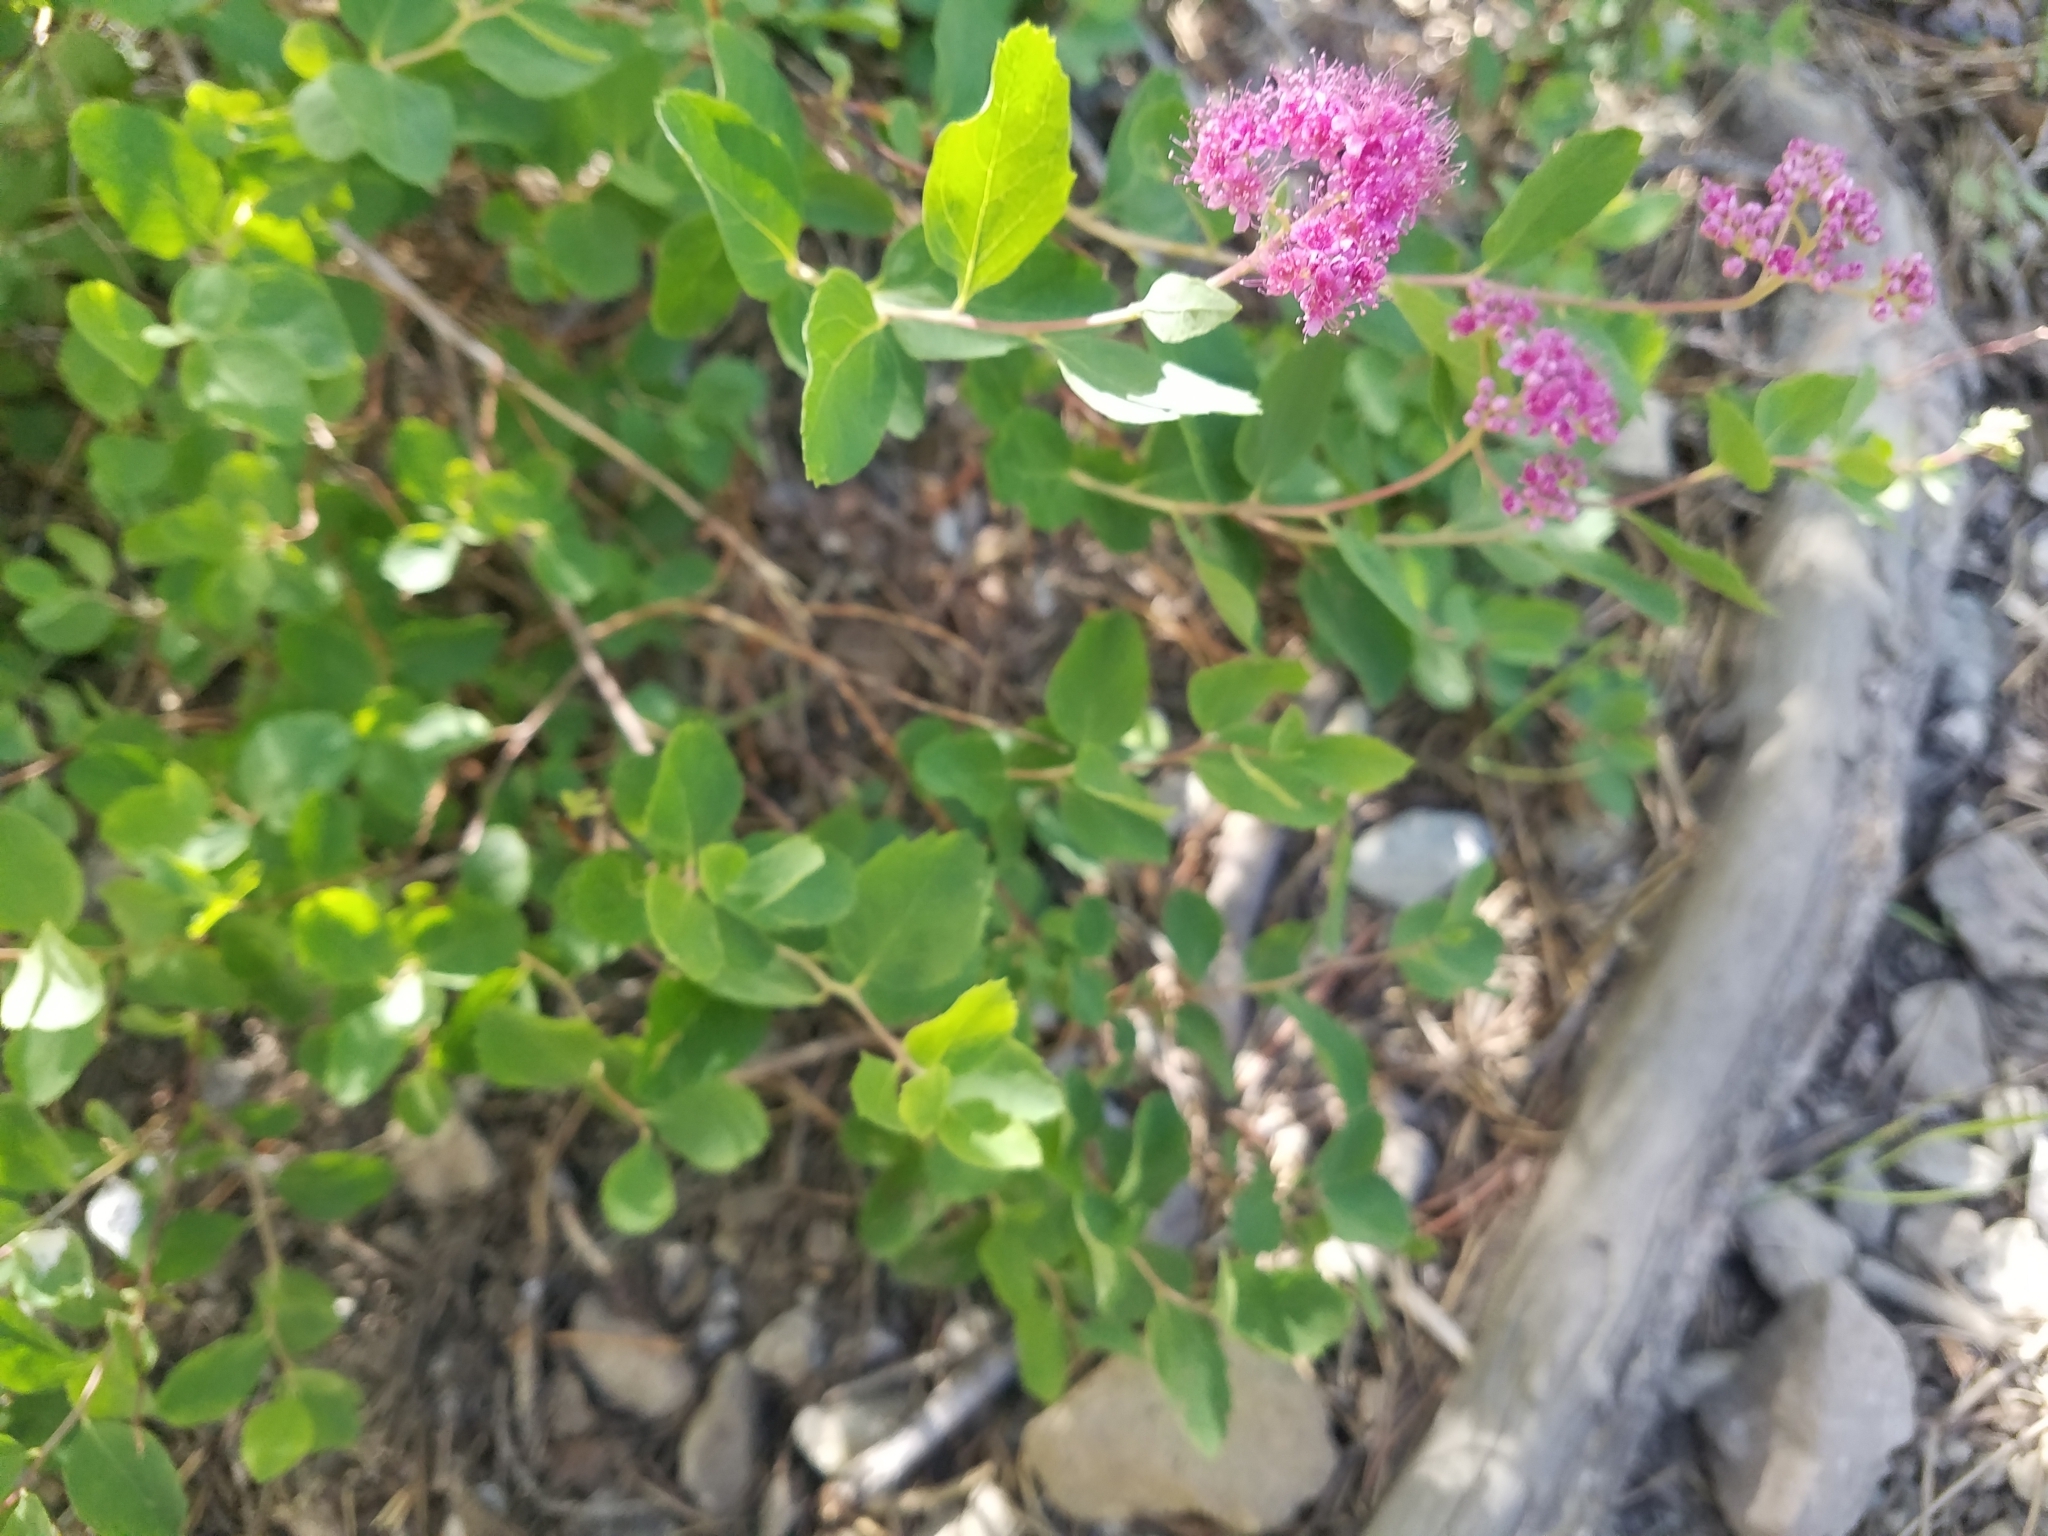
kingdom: Plantae
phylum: Tracheophyta
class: Magnoliopsida
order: Rosales
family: Rosaceae
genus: Spiraea
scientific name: Spiraea splendens
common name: Subalpine meadowsweet
